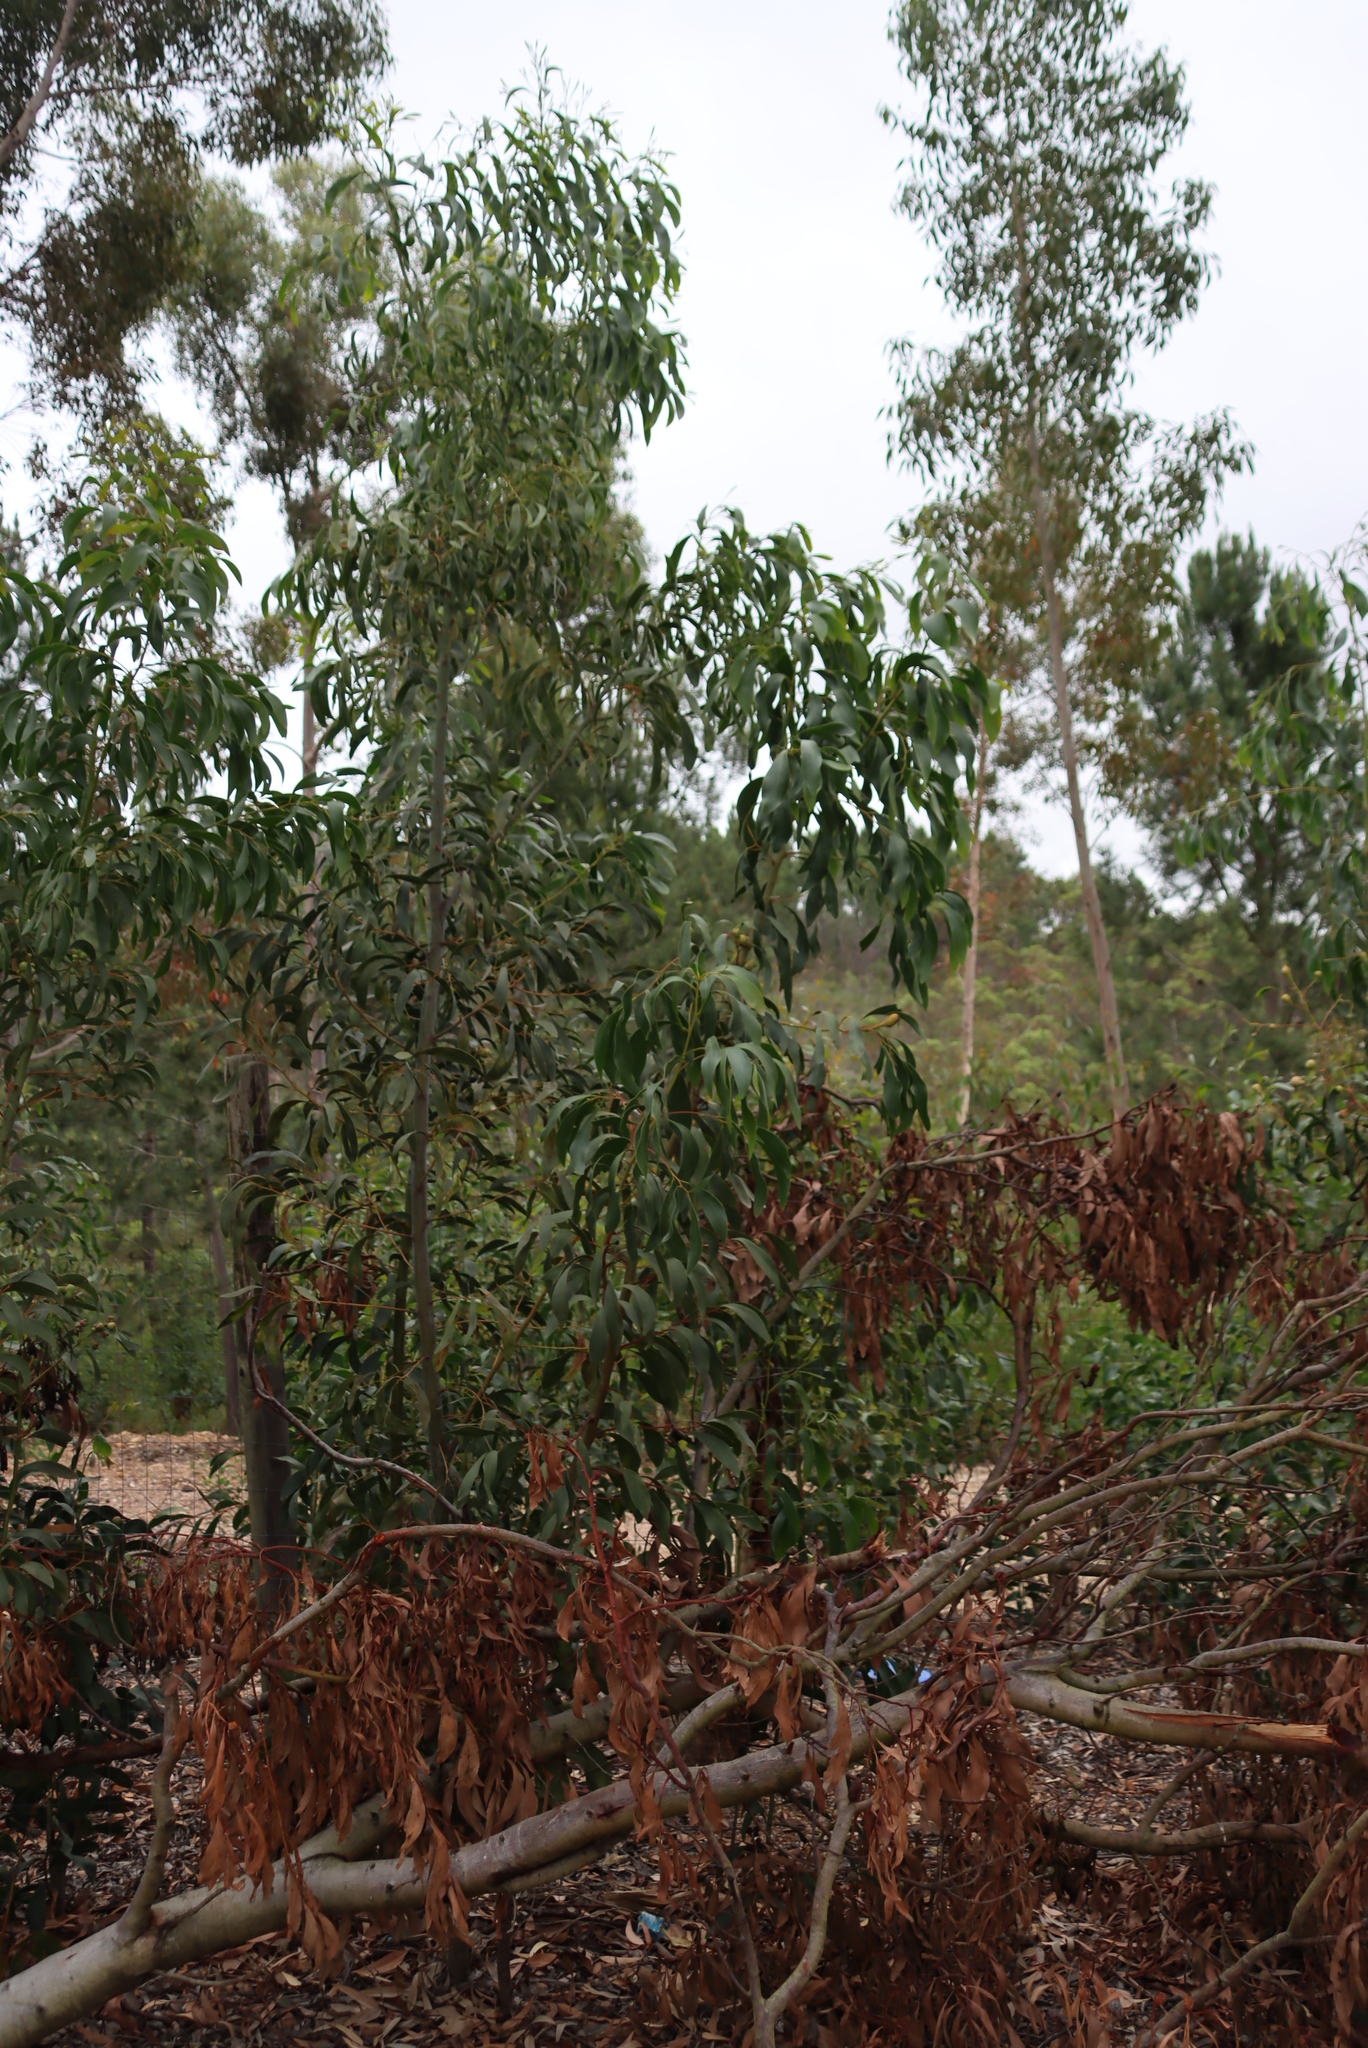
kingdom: Plantae
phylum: Tracheophyta
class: Magnoliopsida
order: Fabales
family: Fabaceae
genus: Acacia
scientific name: Acacia pycnantha
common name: Golden wattle
